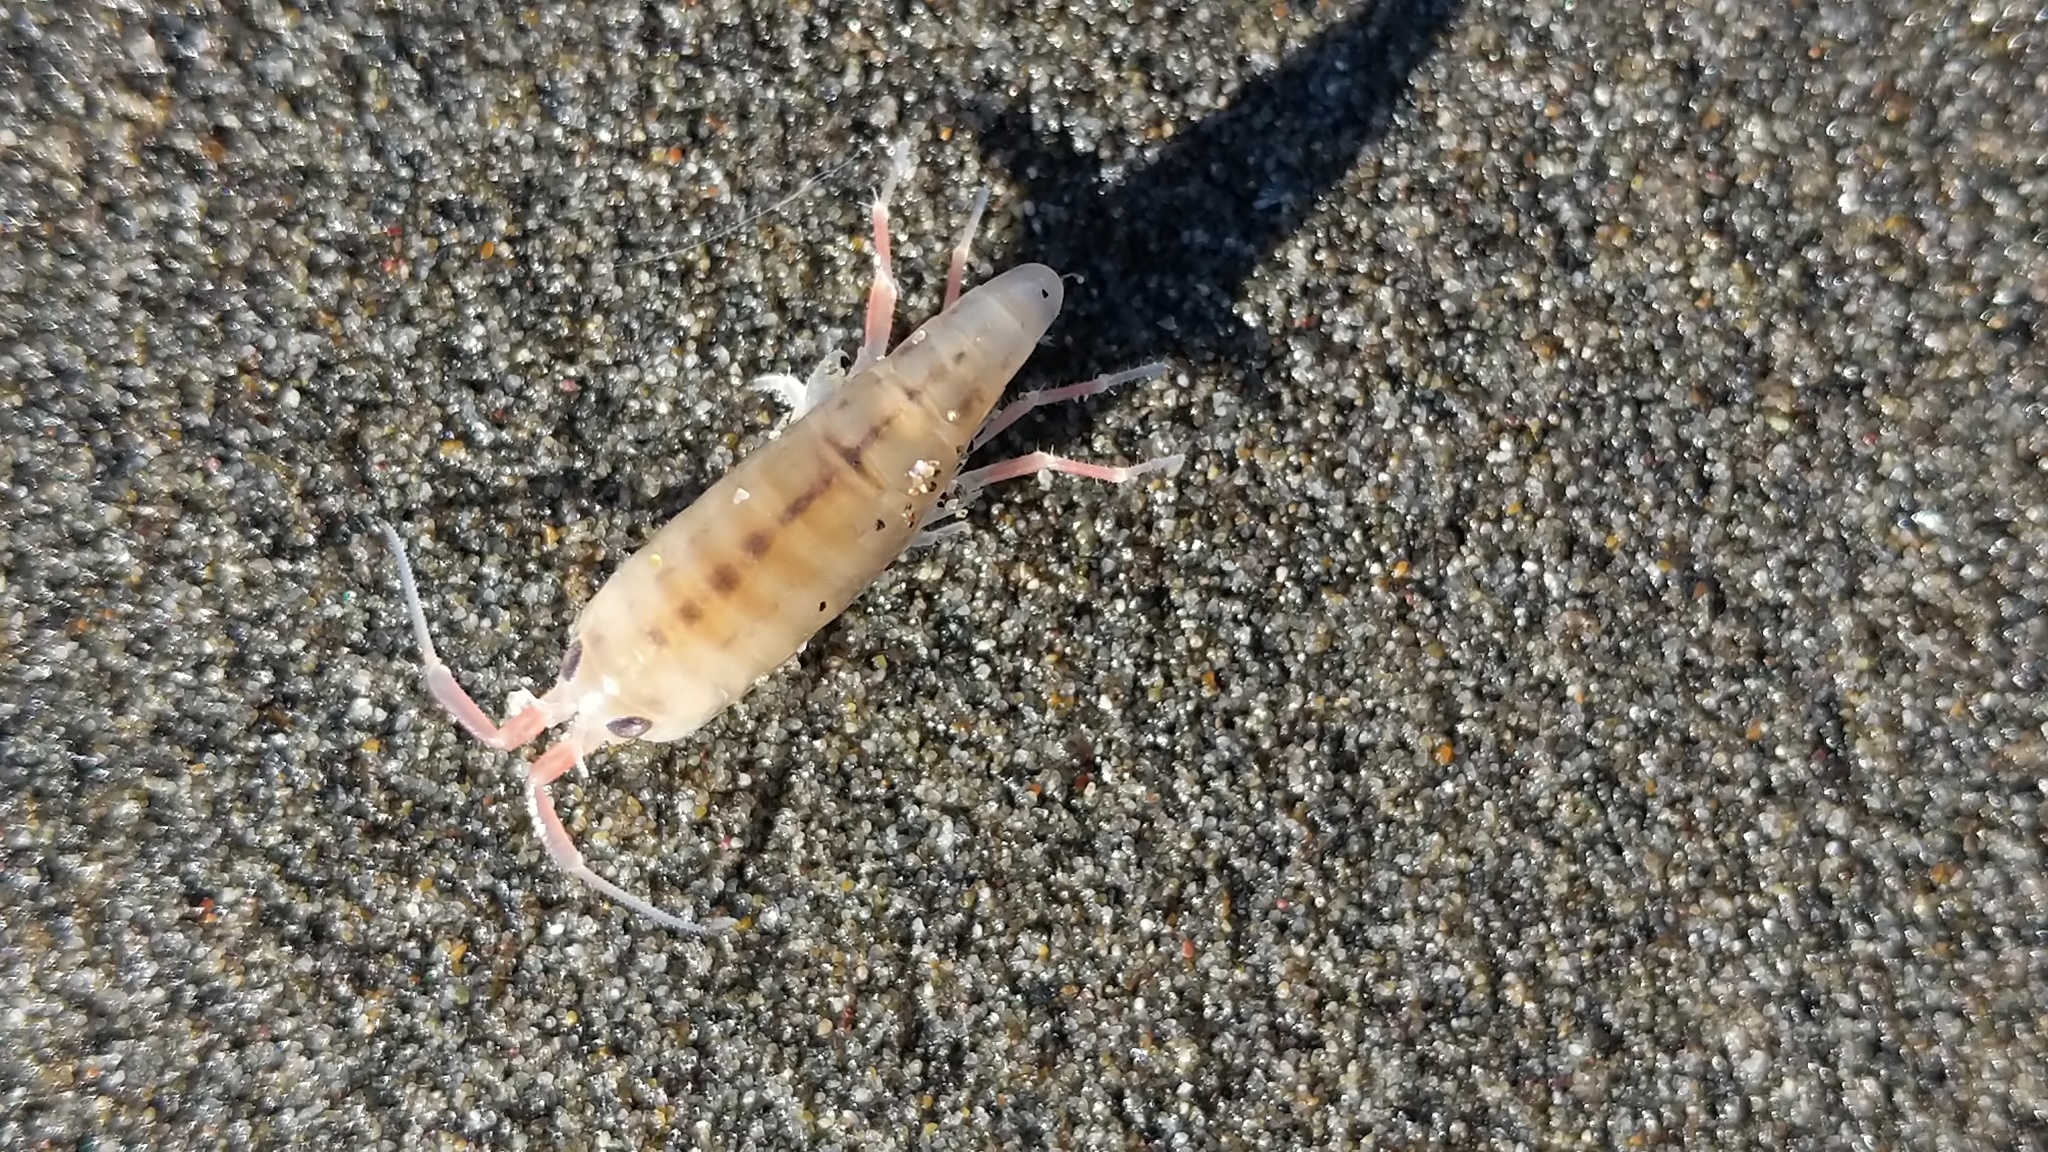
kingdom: Animalia
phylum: Arthropoda
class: Malacostraca
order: Amphipoda
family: Talitridae
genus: Megalorchestia
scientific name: Megalorchestia californiana
